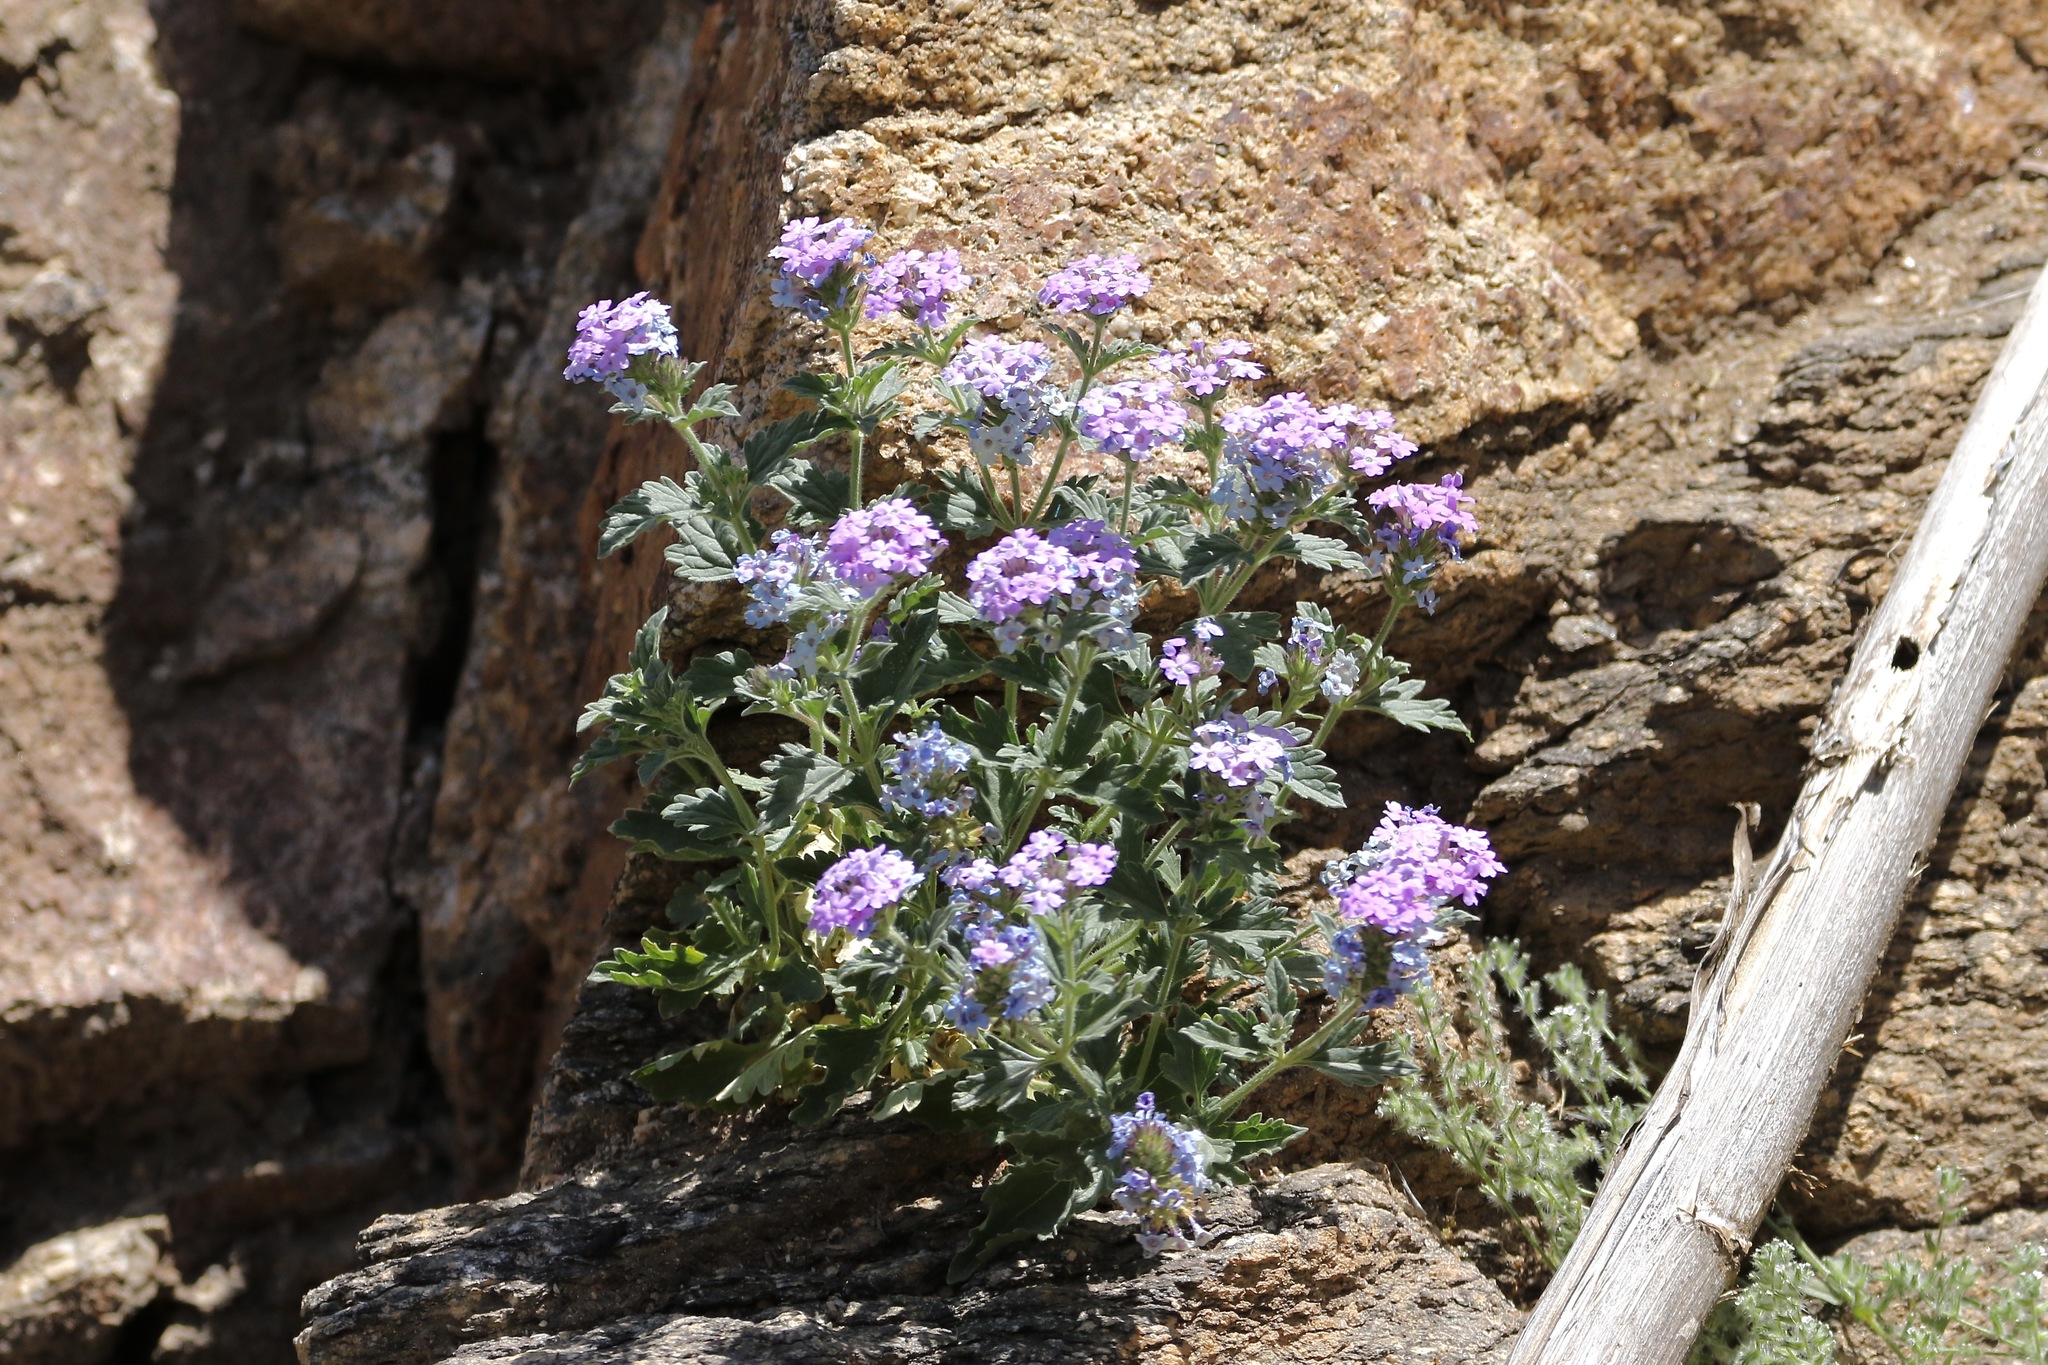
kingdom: Plantae
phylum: Tracheophyta
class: Magnoliopsida
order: Lamiales
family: Verbenaceae
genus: Verbena
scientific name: Verbena gooddingii
